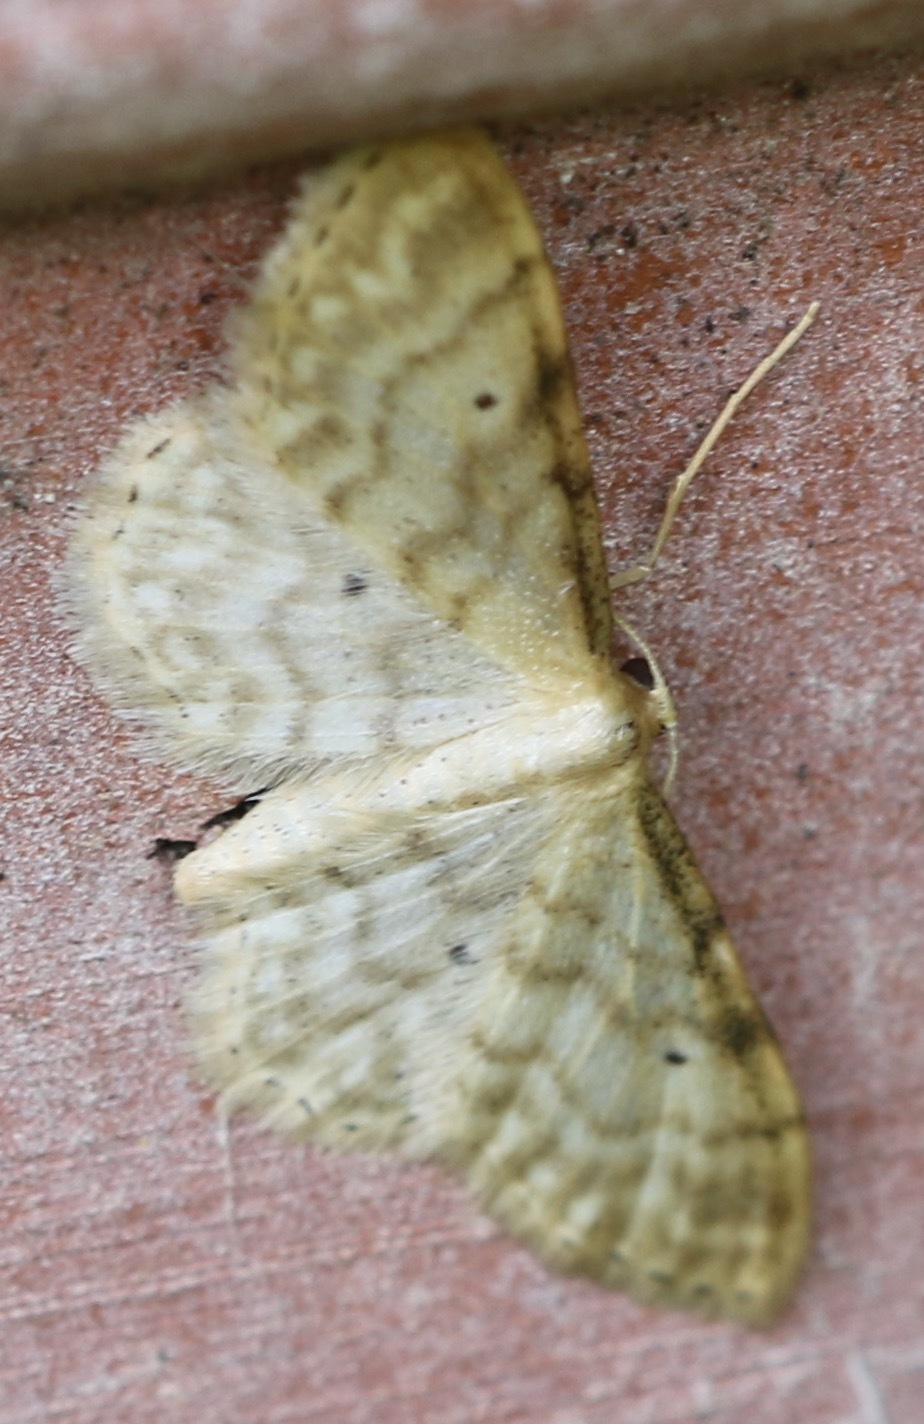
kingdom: Animalia
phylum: Arthropoda
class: Insecta
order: Lepidoptera
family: Geometridae
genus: Idaea
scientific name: Idaea fuscovenosa
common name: Dwarf cream wave
